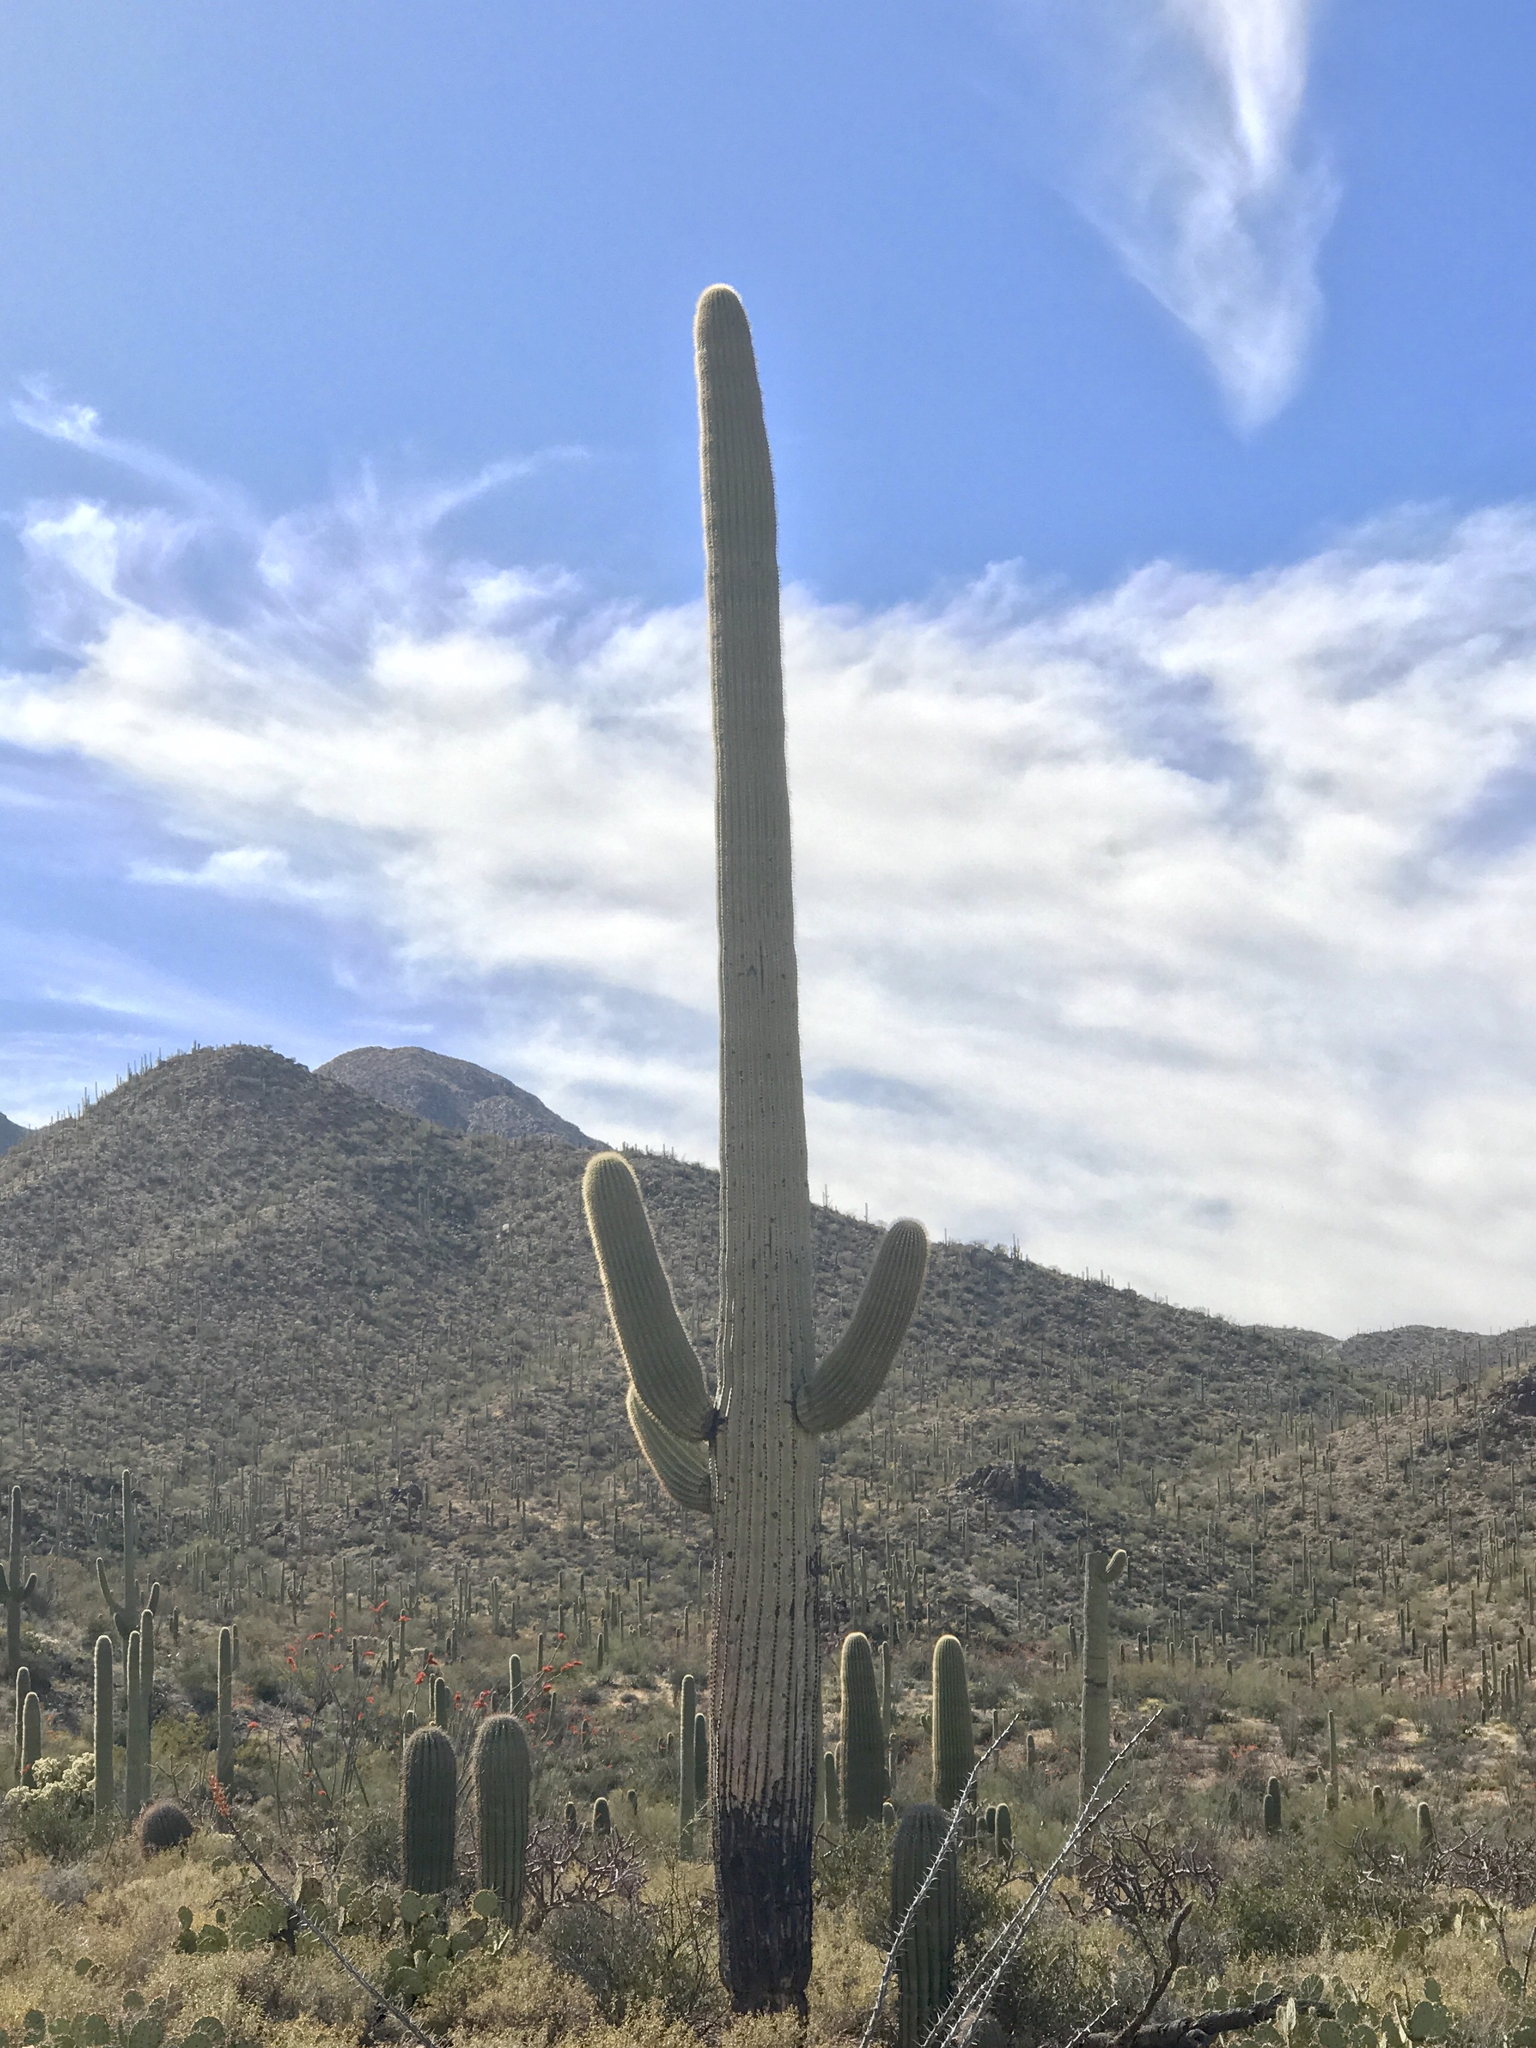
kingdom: Plantae
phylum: Tracheophyta
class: Magnoliopsida
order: Caryophyllales
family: Cactaceae
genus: Carnegiea
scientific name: Carnegiea gigantea
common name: Saguaro
